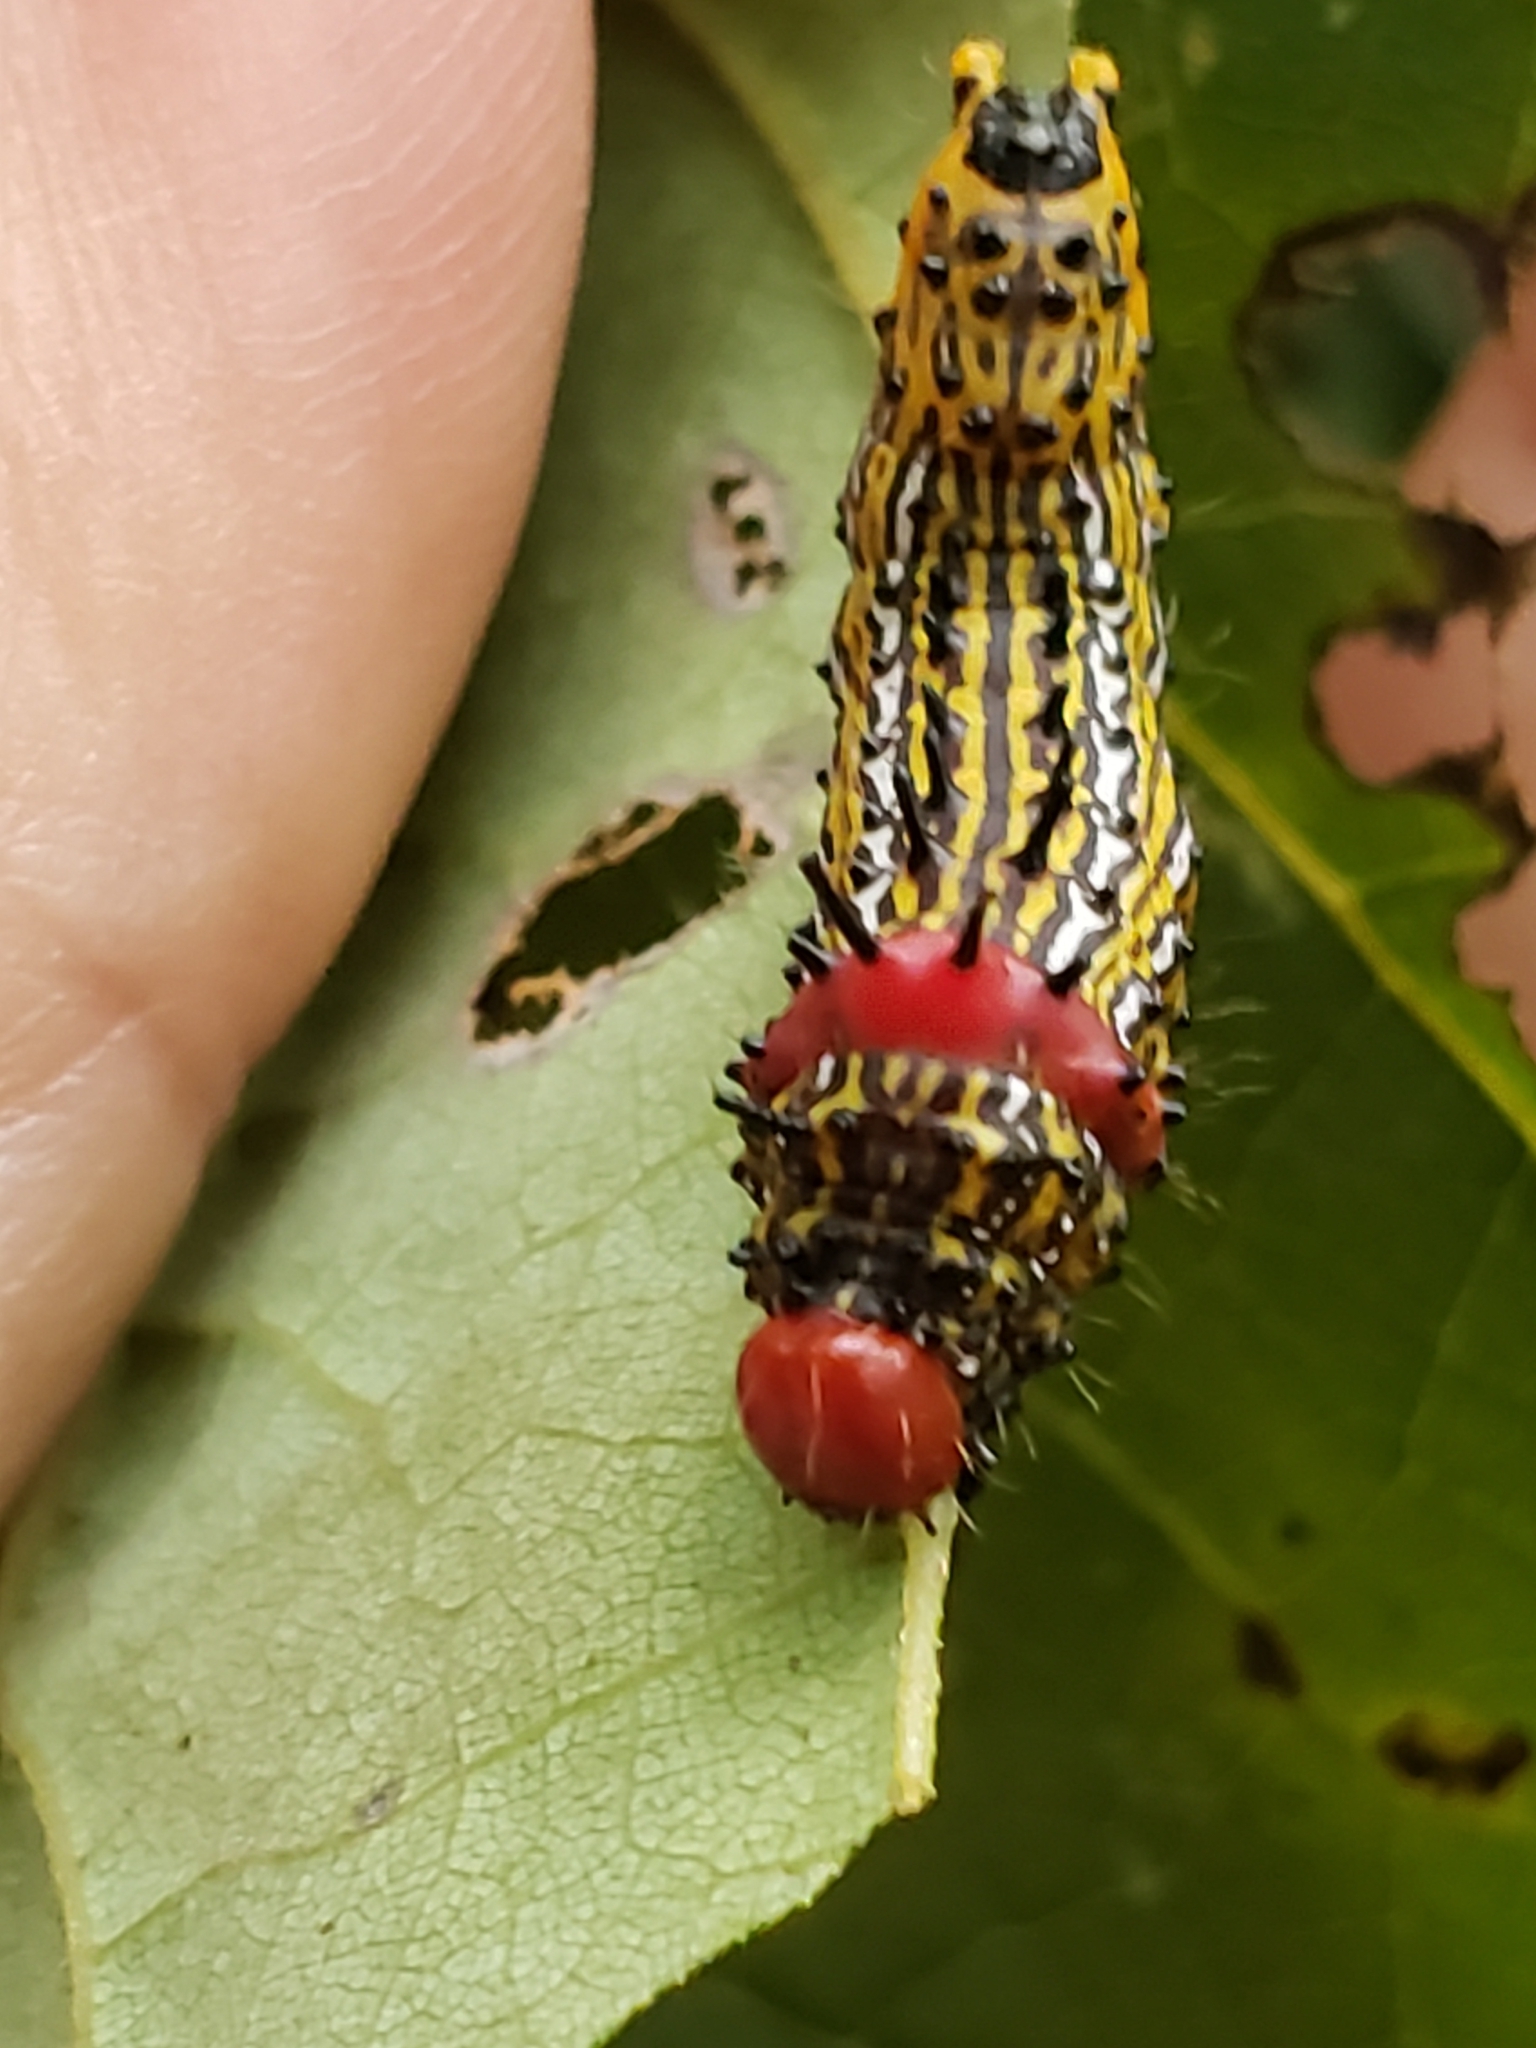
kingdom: Animalia
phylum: Arthropoda
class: Insecta
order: Lepidoptera
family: Notodontidae
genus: Schizura
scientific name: Schizura
